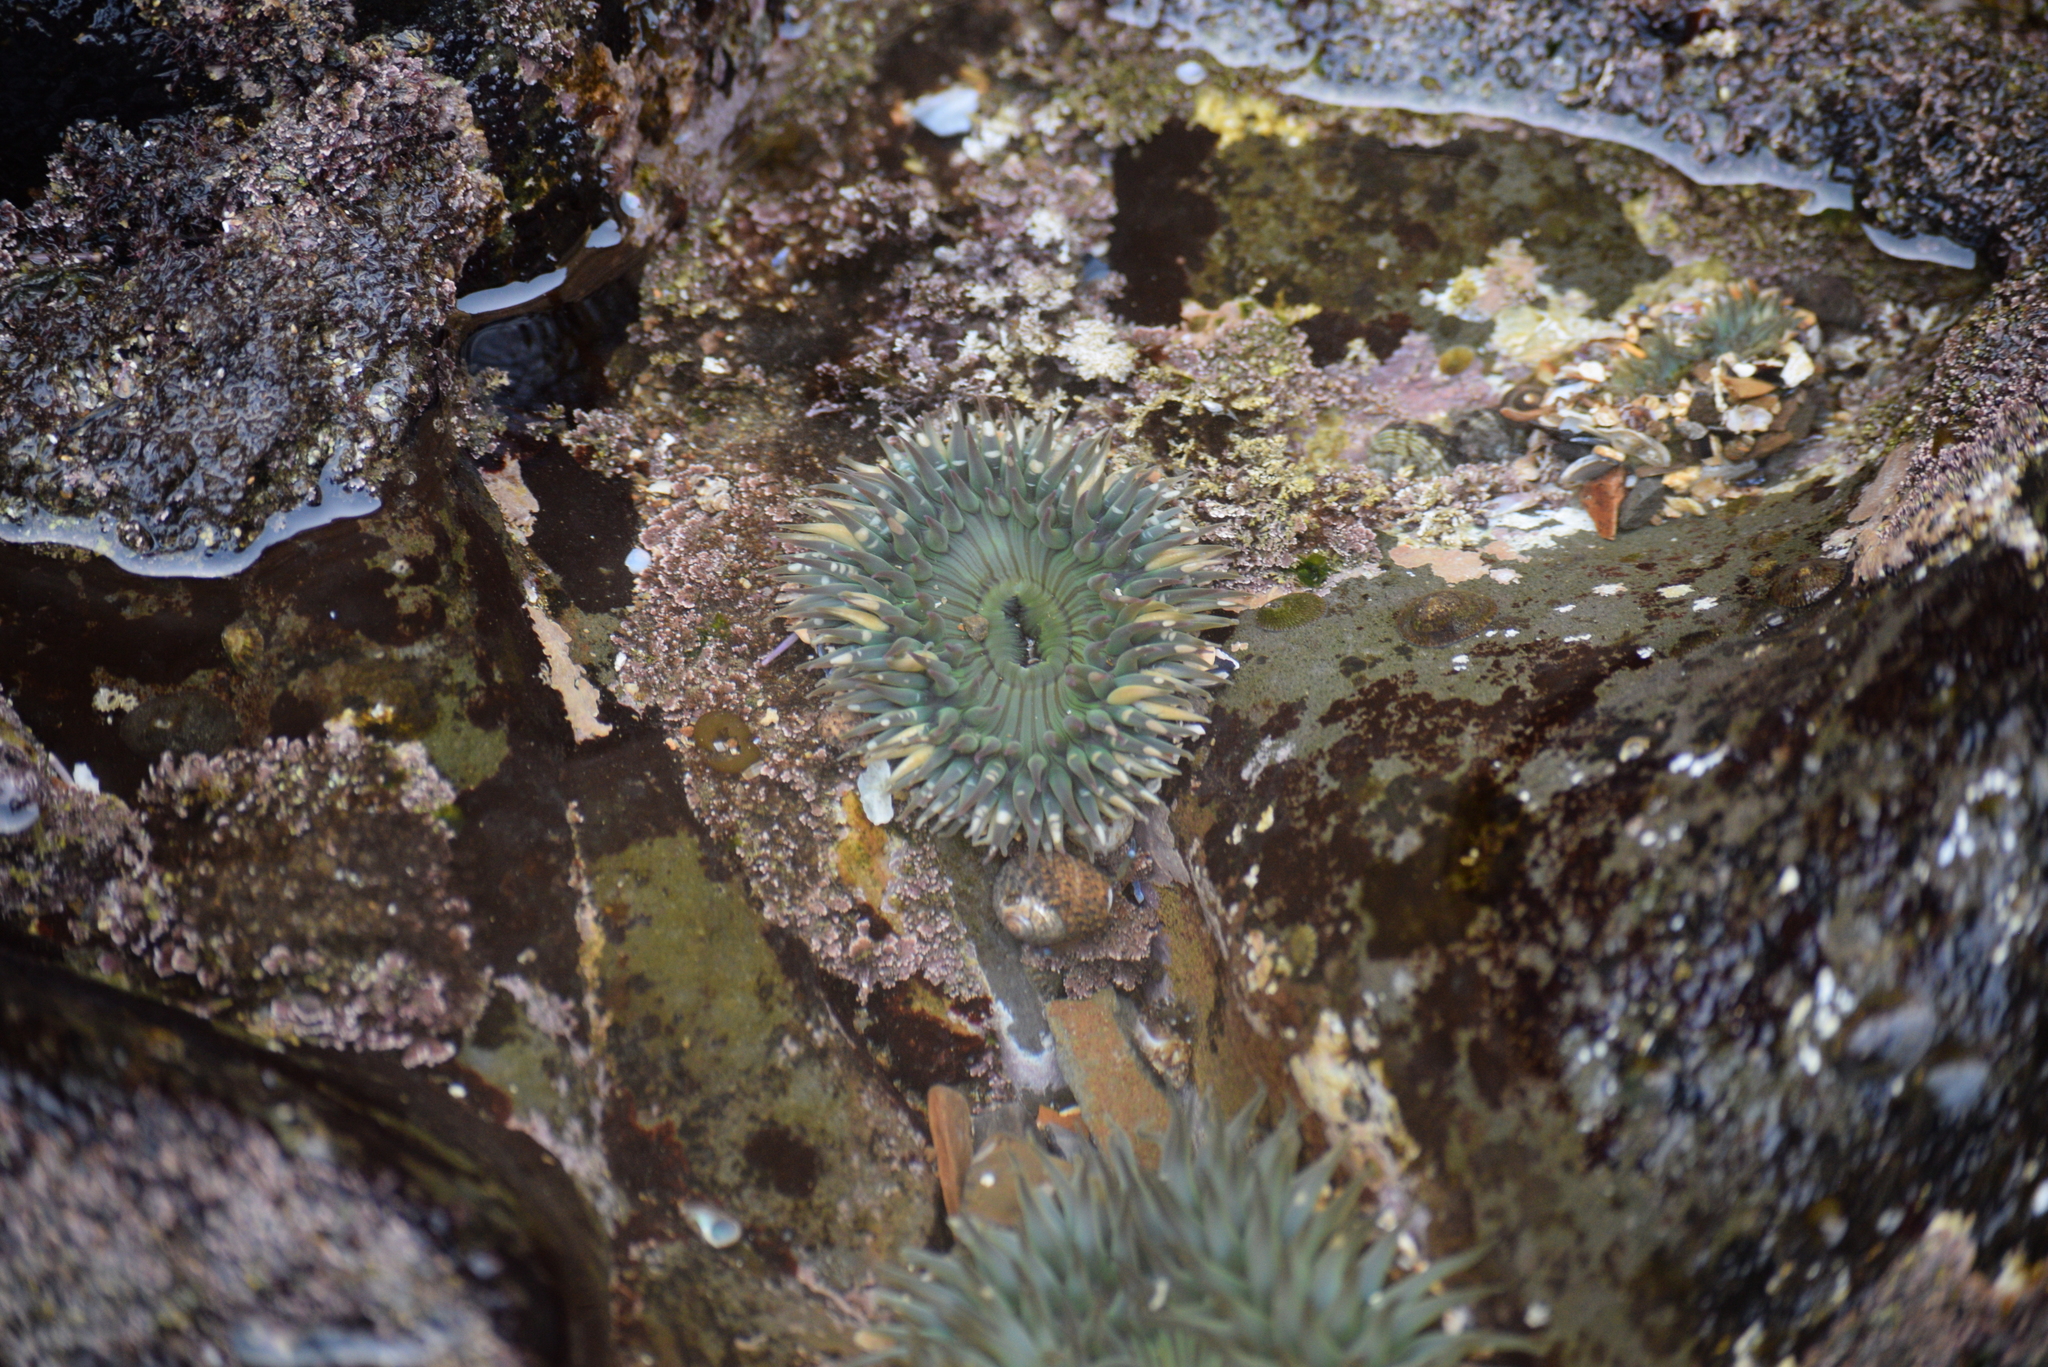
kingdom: Animalia
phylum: Cnidaria
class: Anthozoa
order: Actiniaria
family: Actiniidae
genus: Anthopleura
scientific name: Anthopleura sola
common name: Sun anemone
